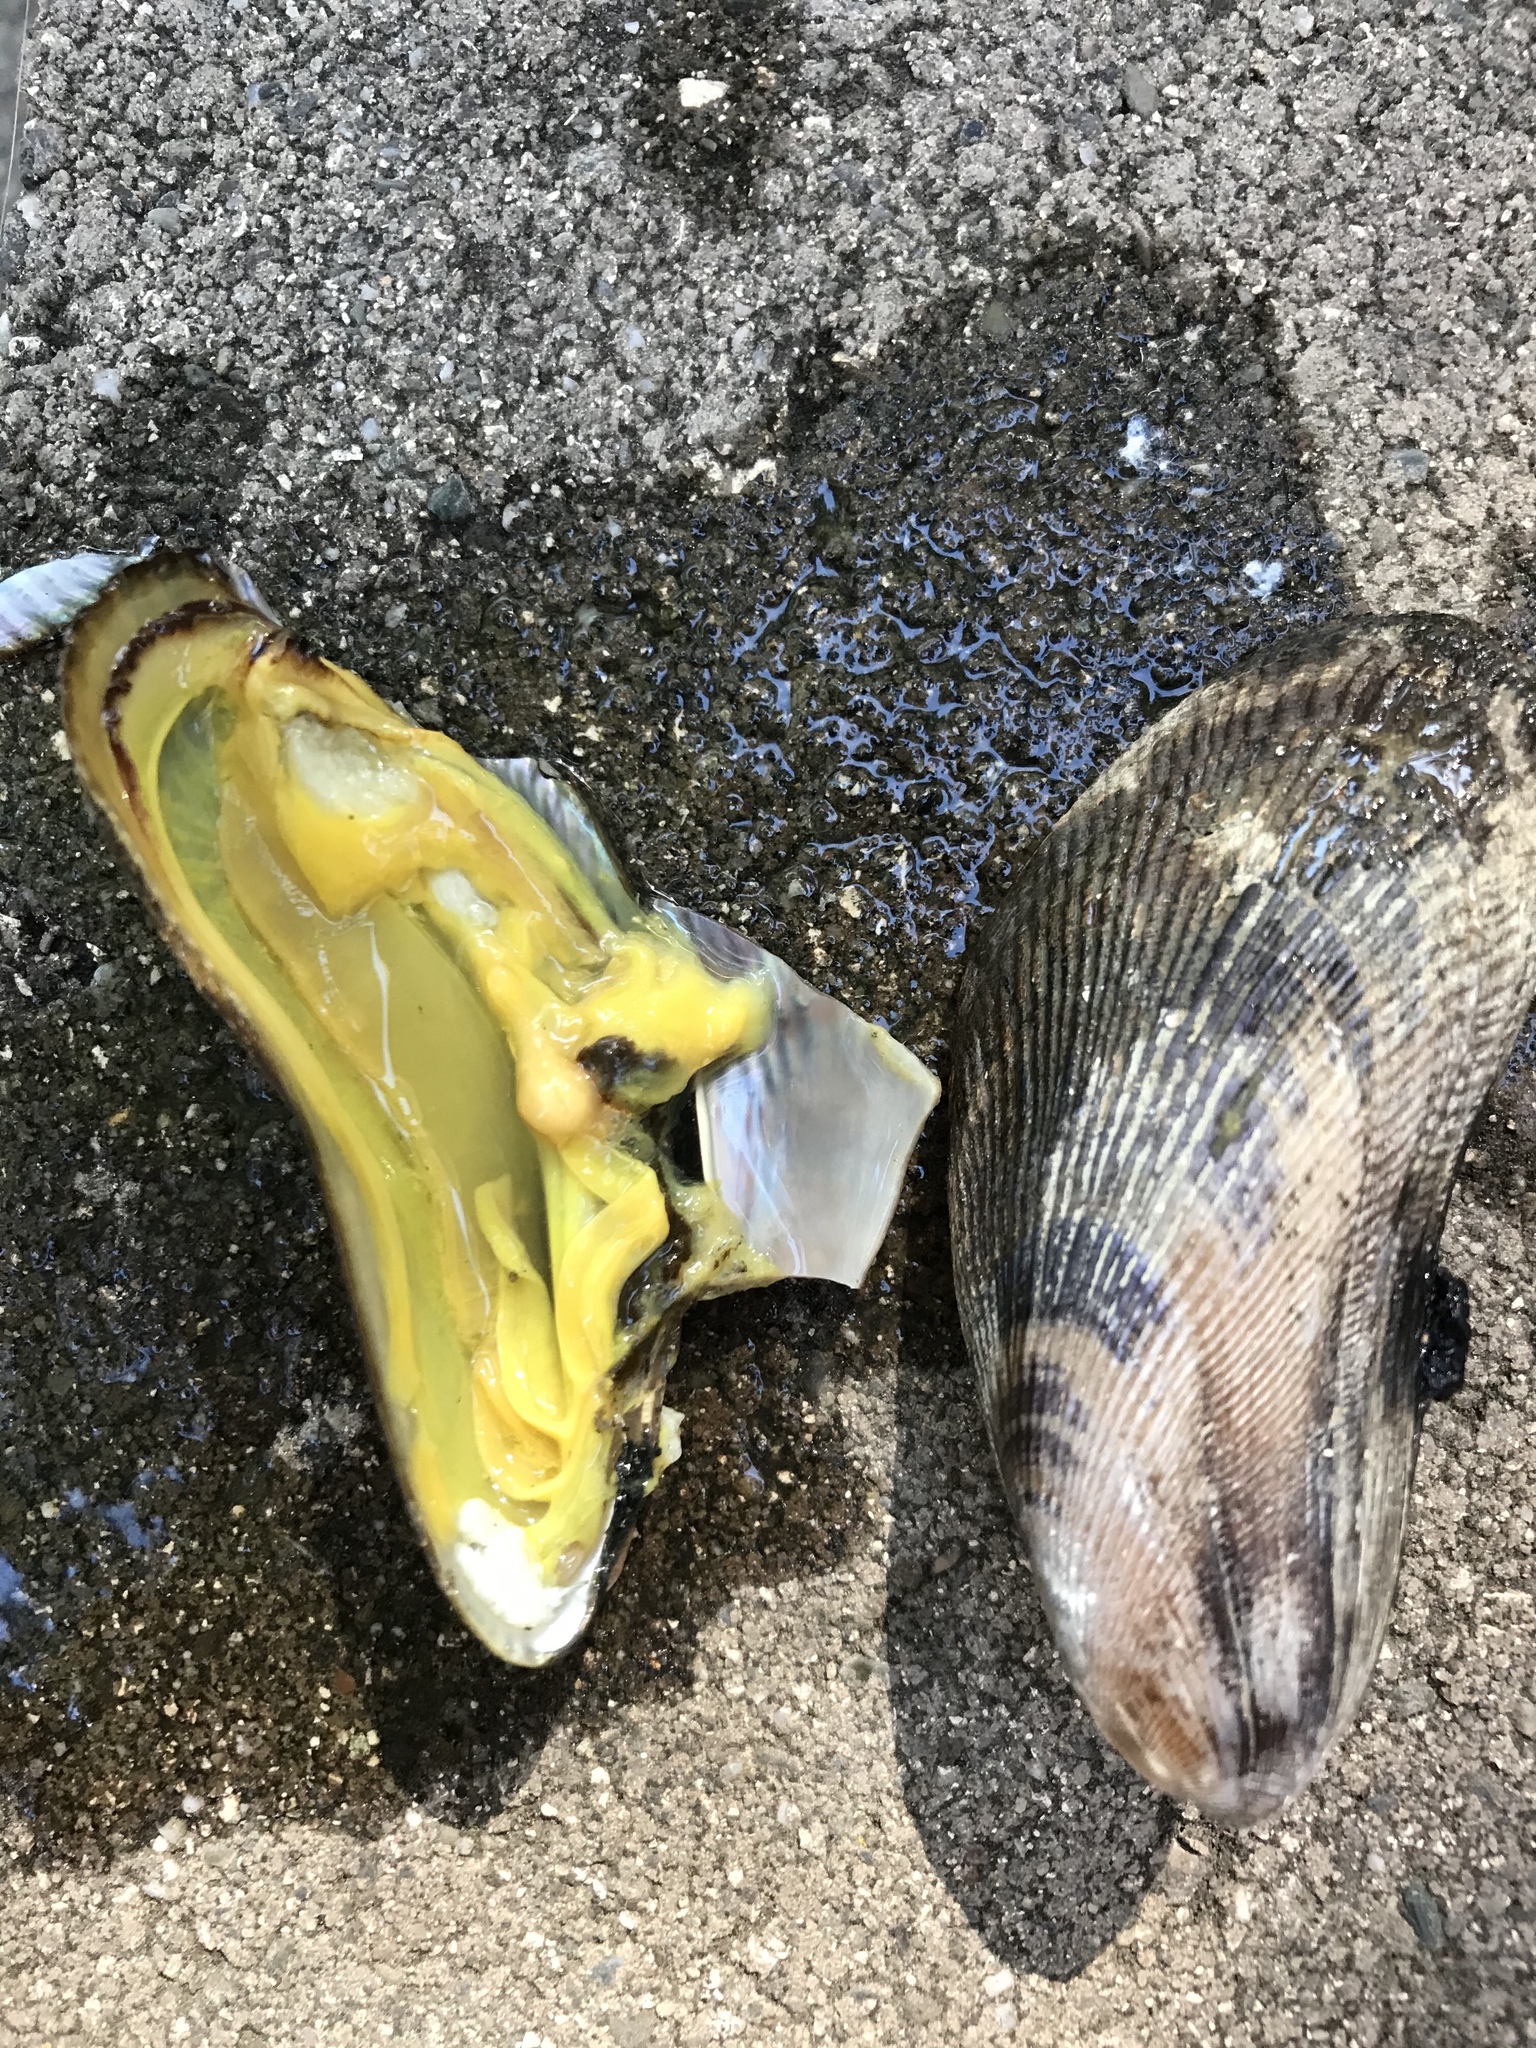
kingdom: Animalia
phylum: Mollusca
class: Bivalvia
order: Mytilida
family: Mytilidae
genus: Geukensia
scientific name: Geukensia demissa
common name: Ribbed mussel
